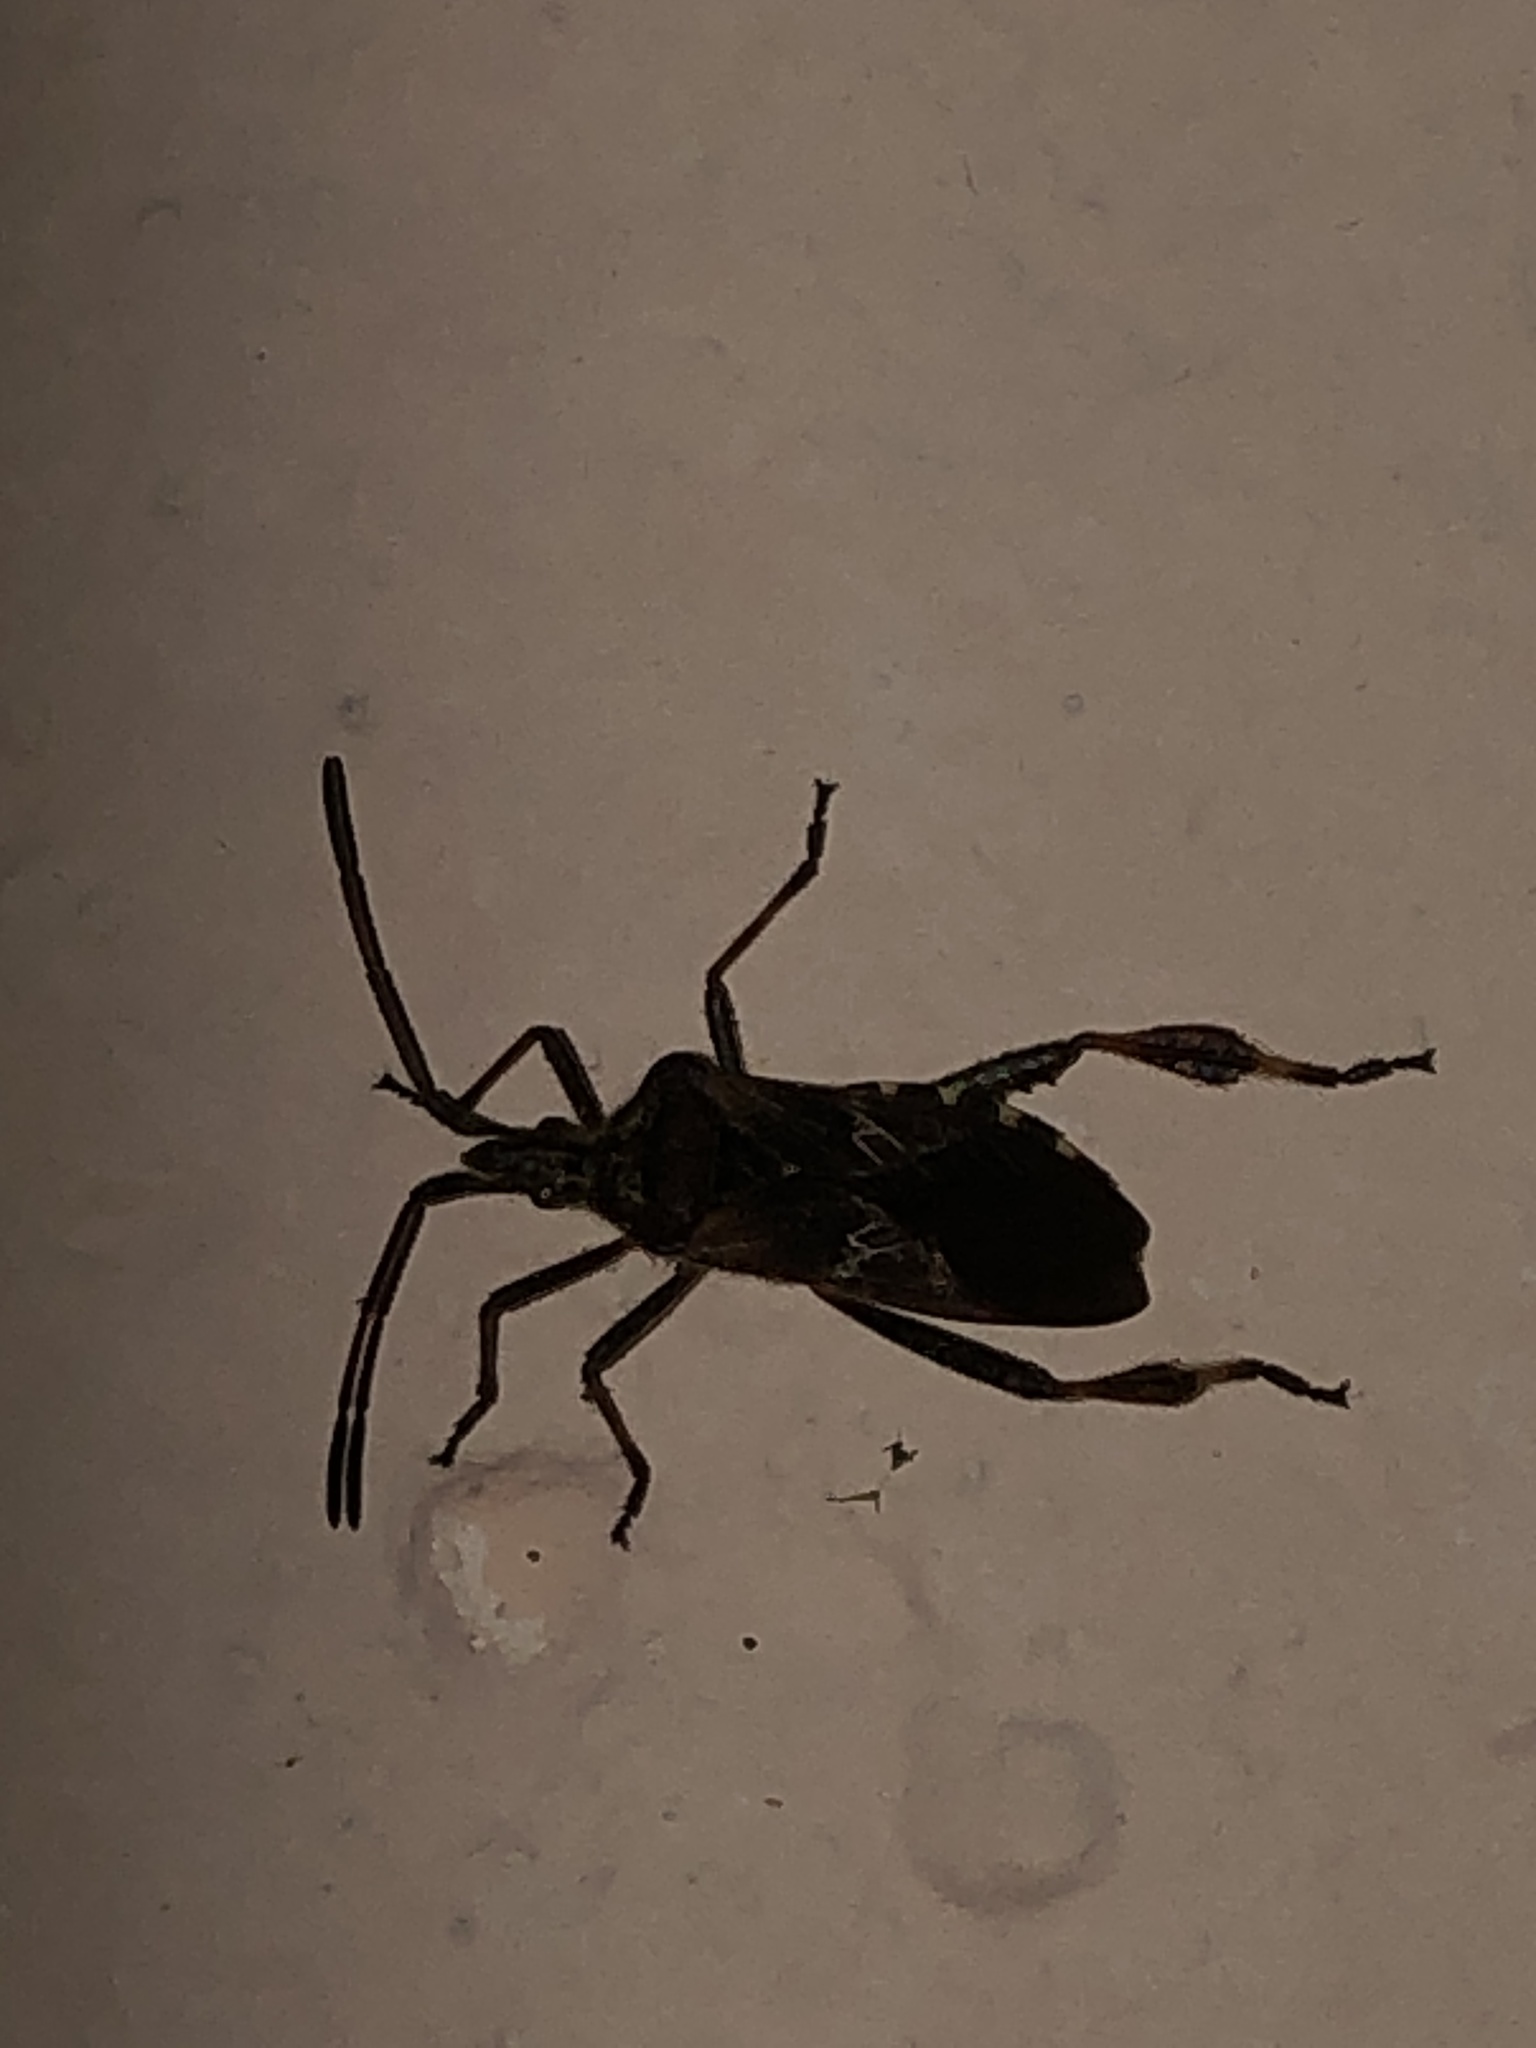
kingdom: Animalia
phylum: Arthropoda
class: Insecta
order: Hemiptera
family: Coreidae
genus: Leptoglossus
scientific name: Leptoglossus occidentalis
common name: Western conifer-seed bug
